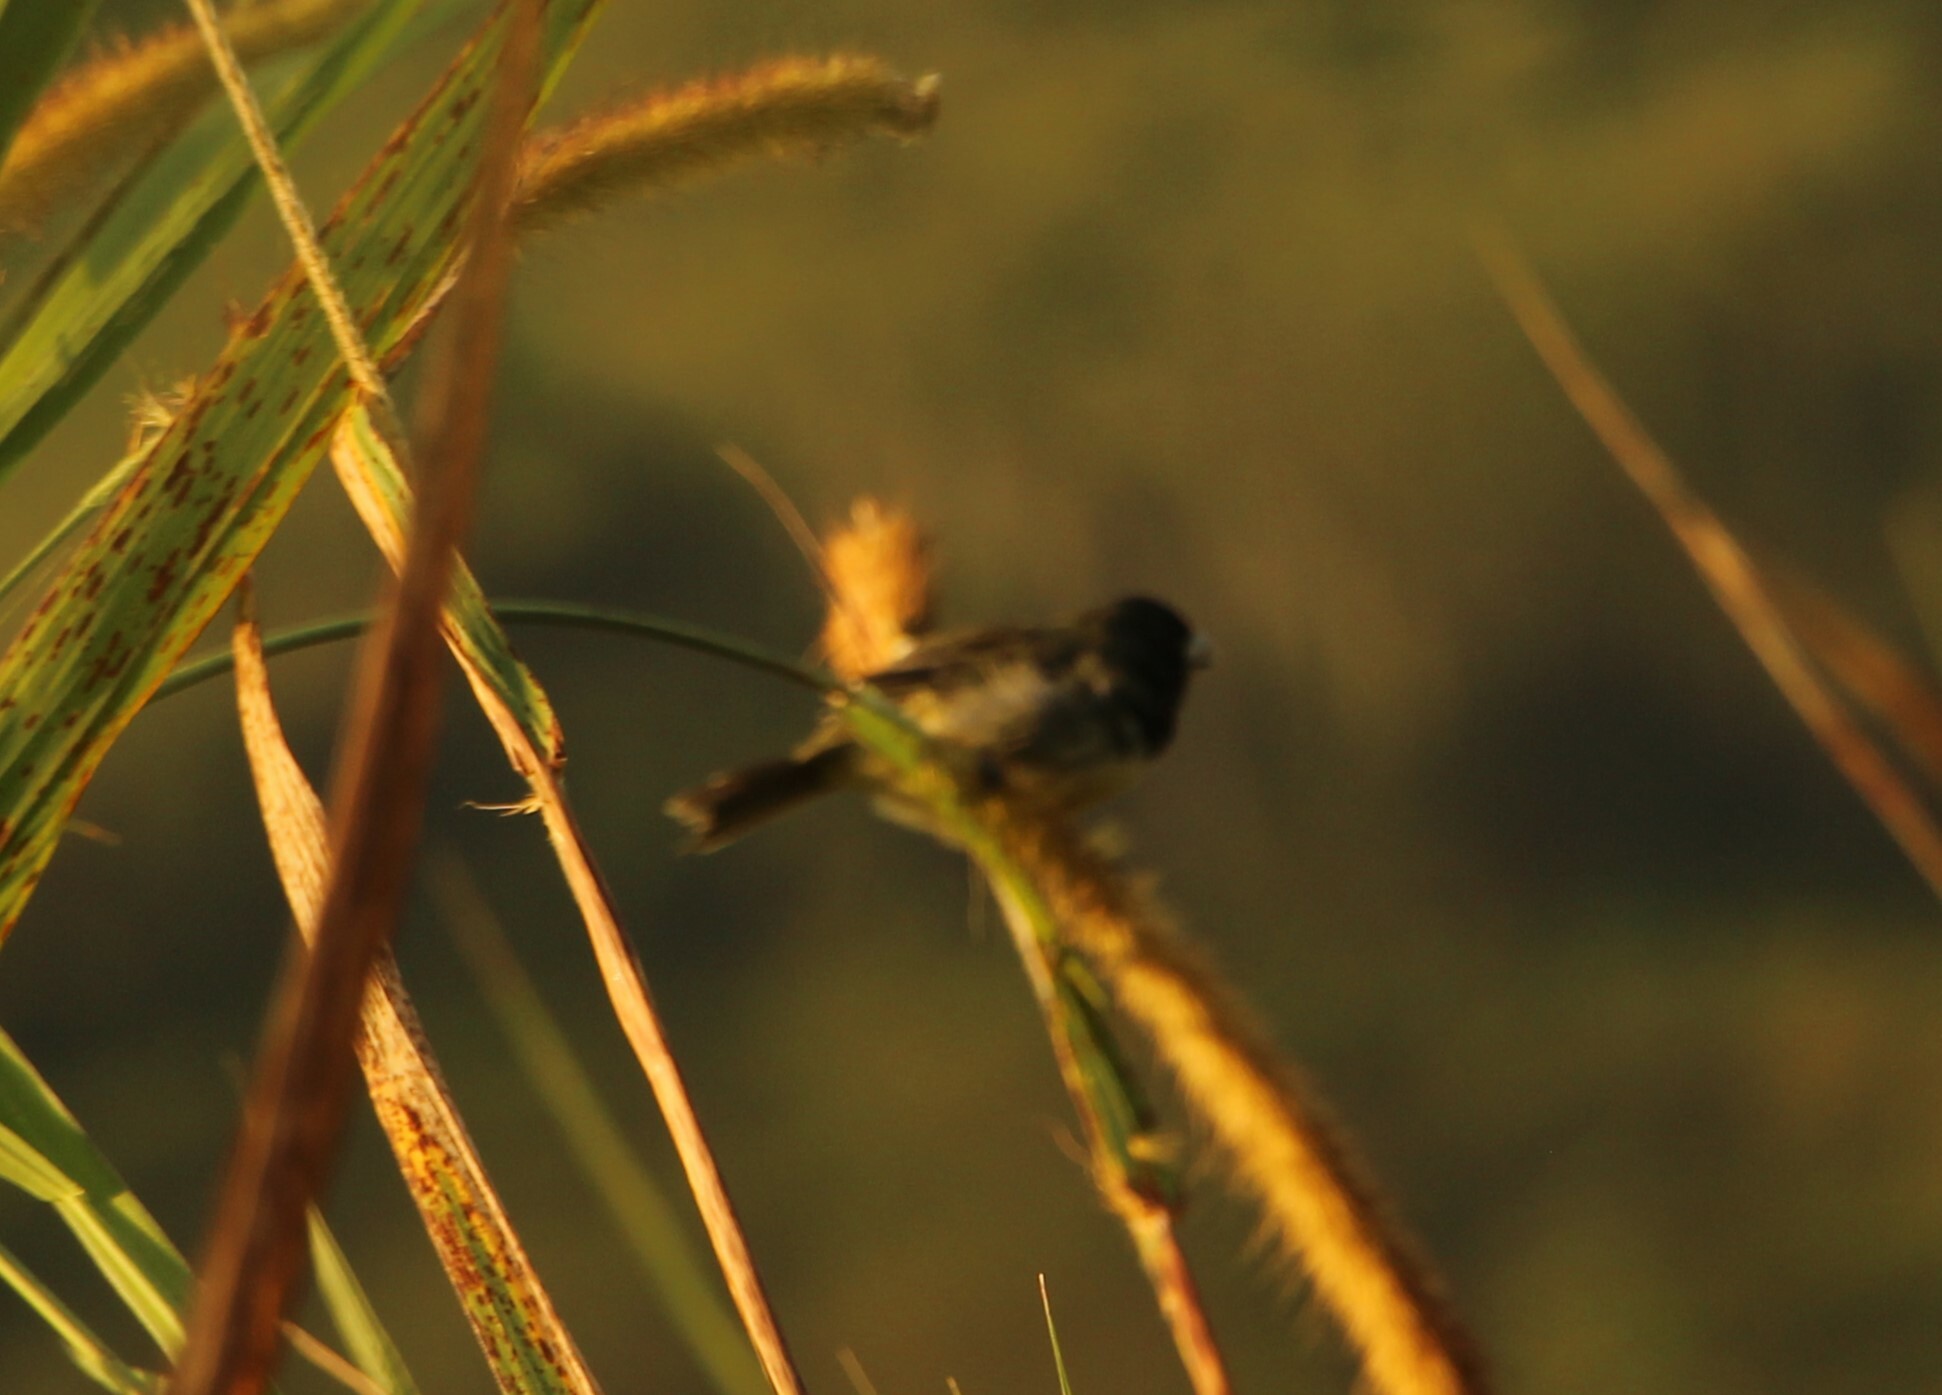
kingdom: Animalia
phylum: Chordata
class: Aves
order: Passeriformes
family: Thraupidae
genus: Sporophila
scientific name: Sporophila nigricollis
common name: Yellow-bellied seedeater
